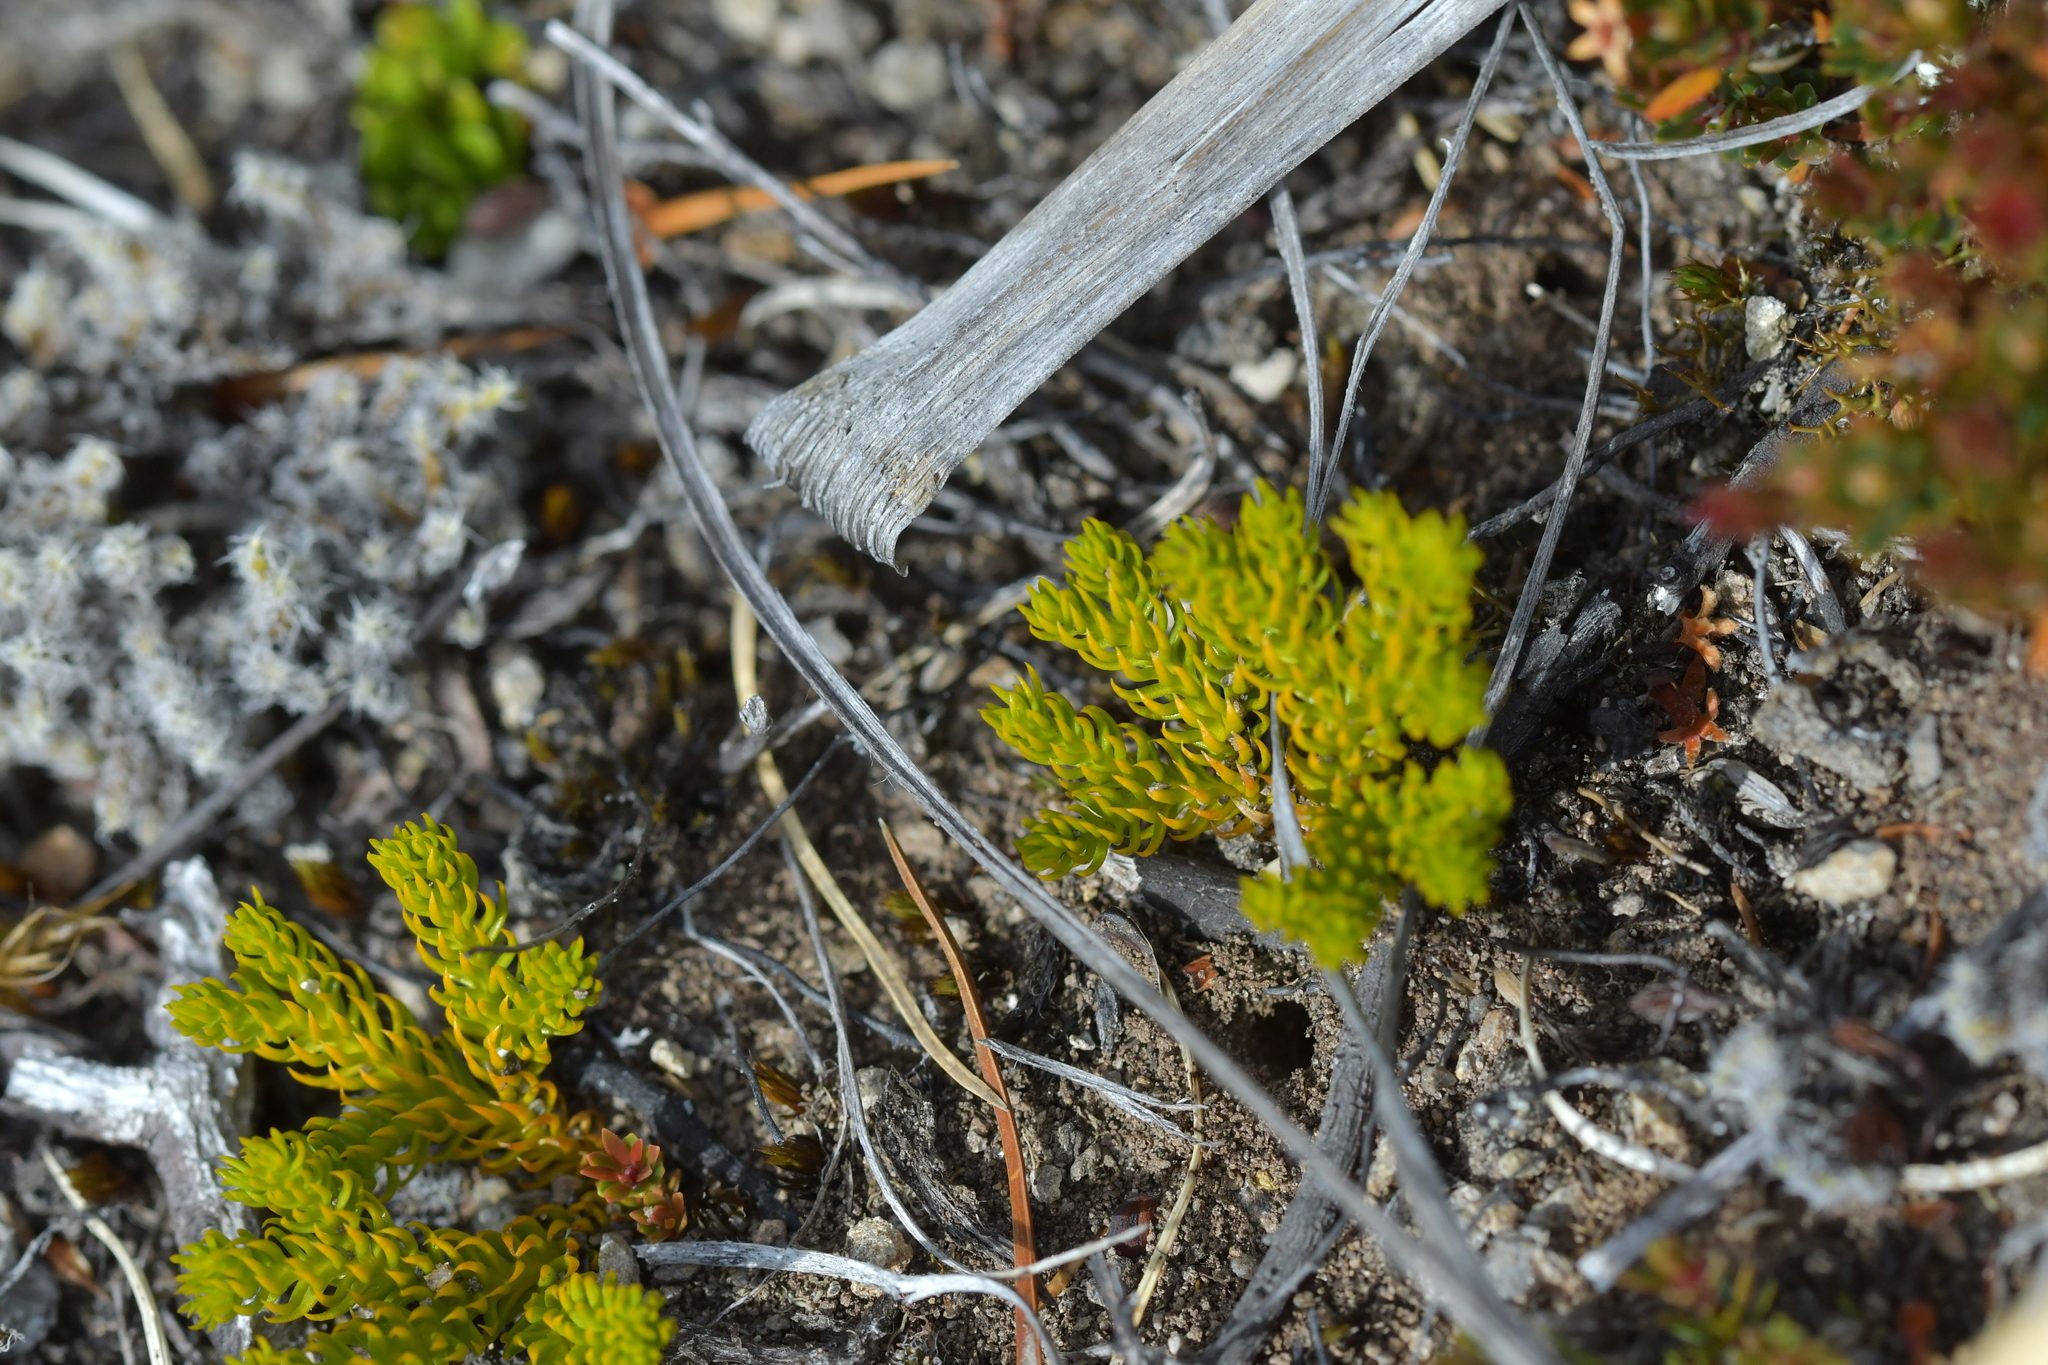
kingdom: Plantae
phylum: Tracheophyta
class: Lycopodiopsida
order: Lycopodiales
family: Lycopodiaceae
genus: Austrolycopodium
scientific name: Austrolycopodium fastigiatum
